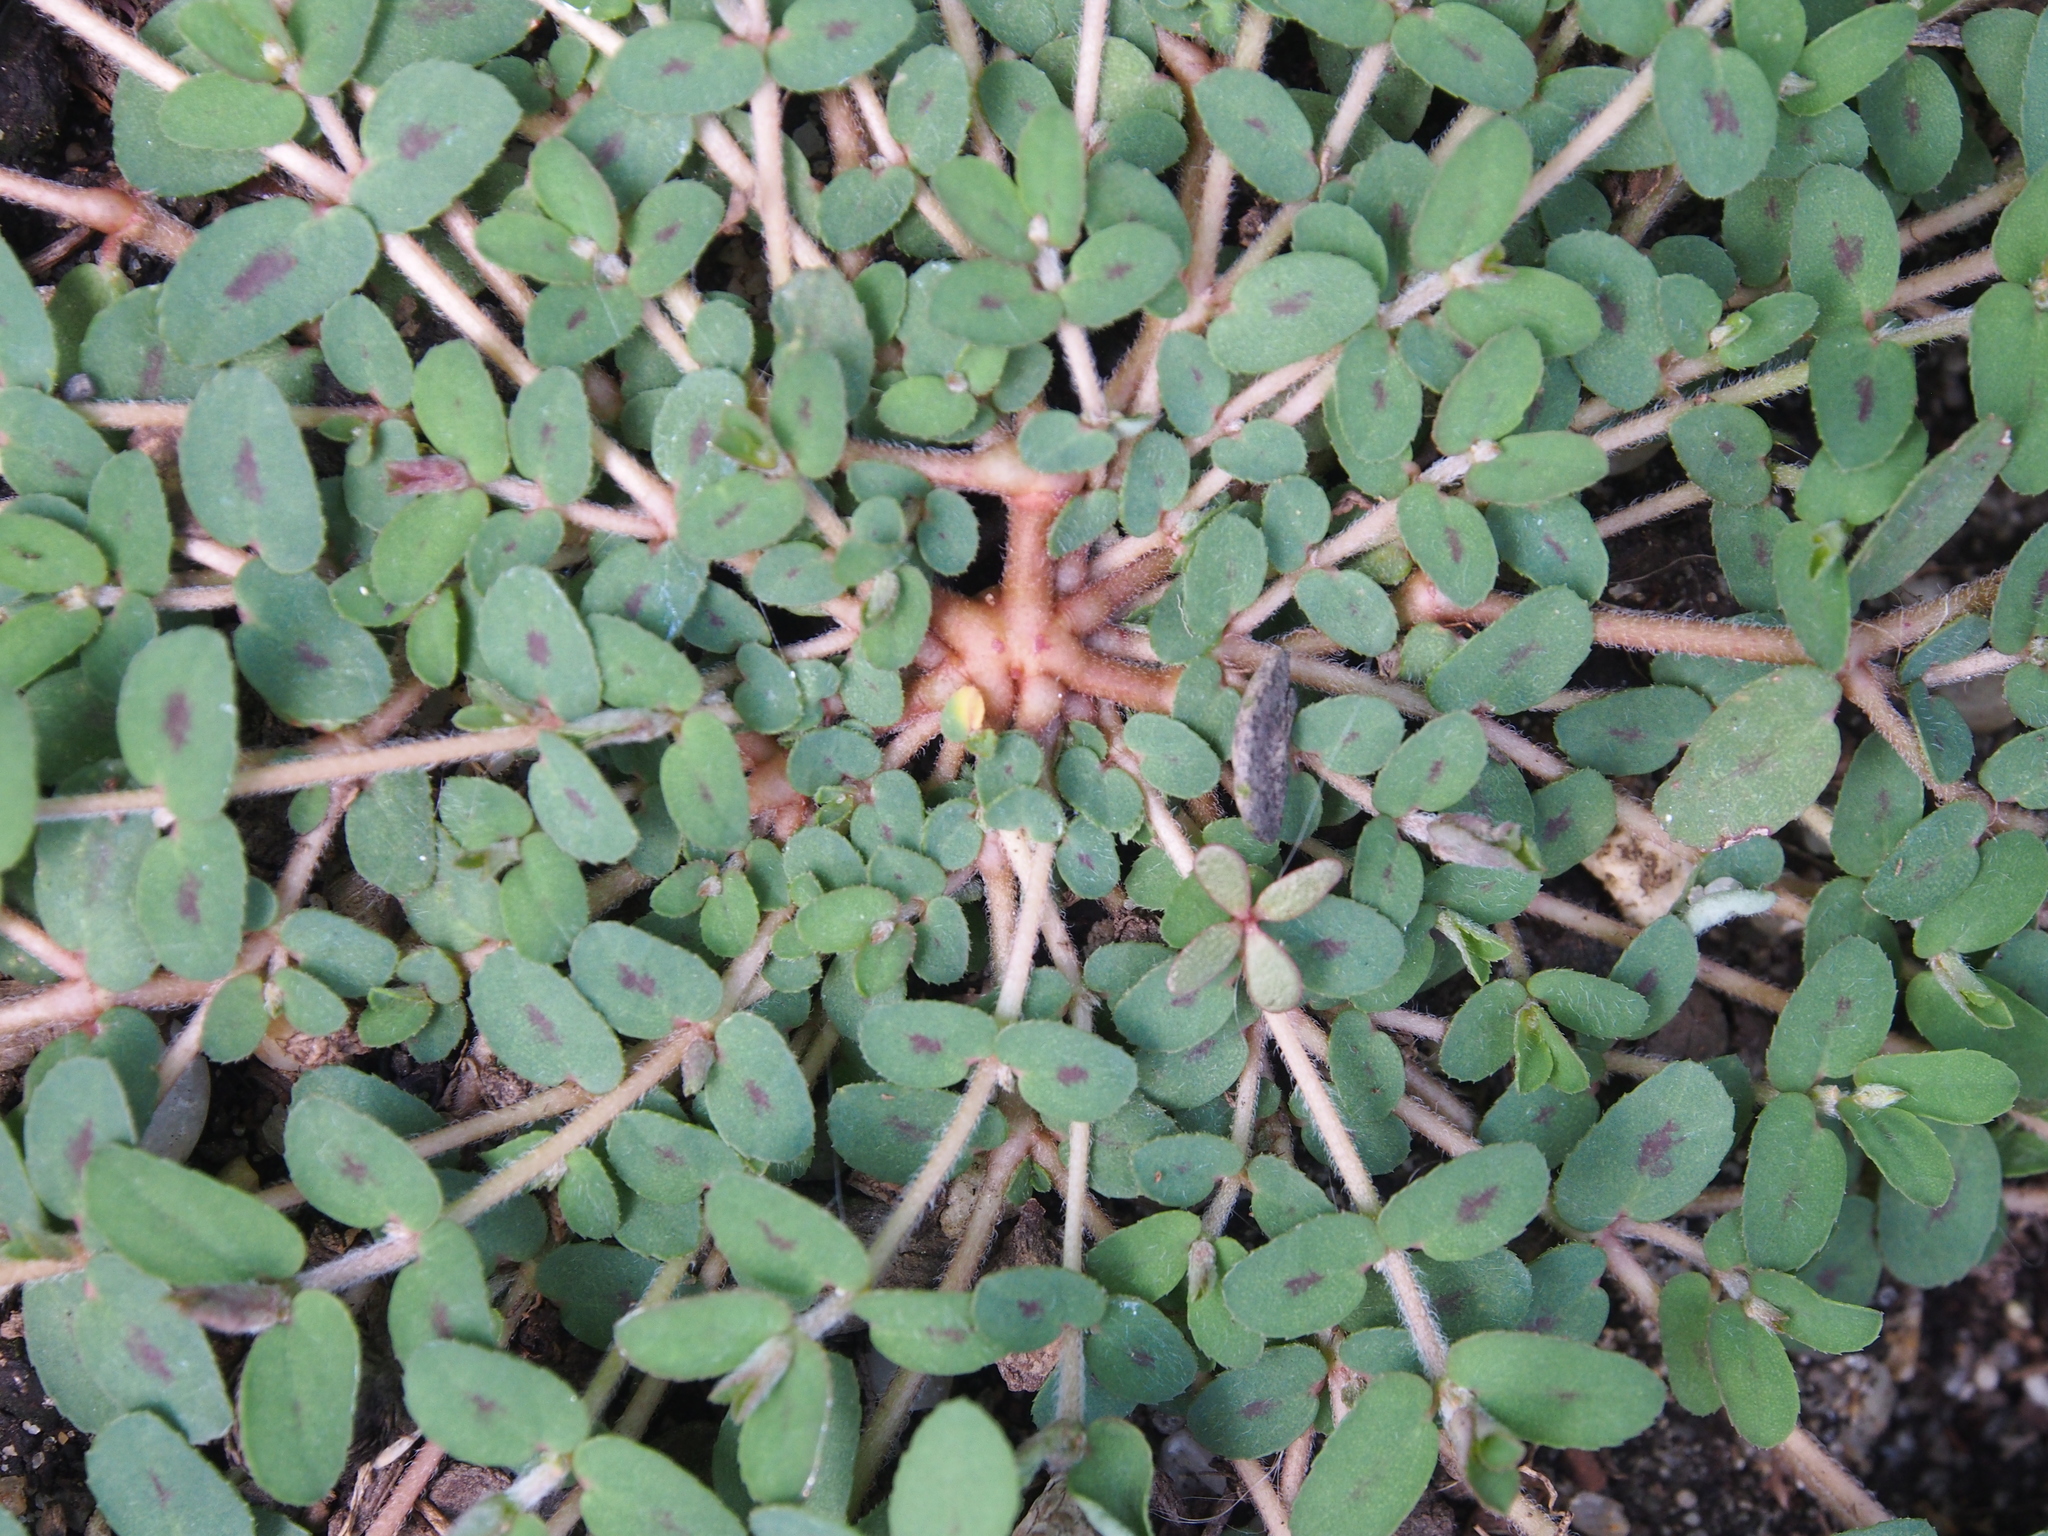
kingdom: Plantae
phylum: Tracheophyta
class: Magnoliopsida
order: Malpighiales
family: Euphorbiaceae
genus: Euphorbia
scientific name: Euphorbia maculata
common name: Spotted spurge
